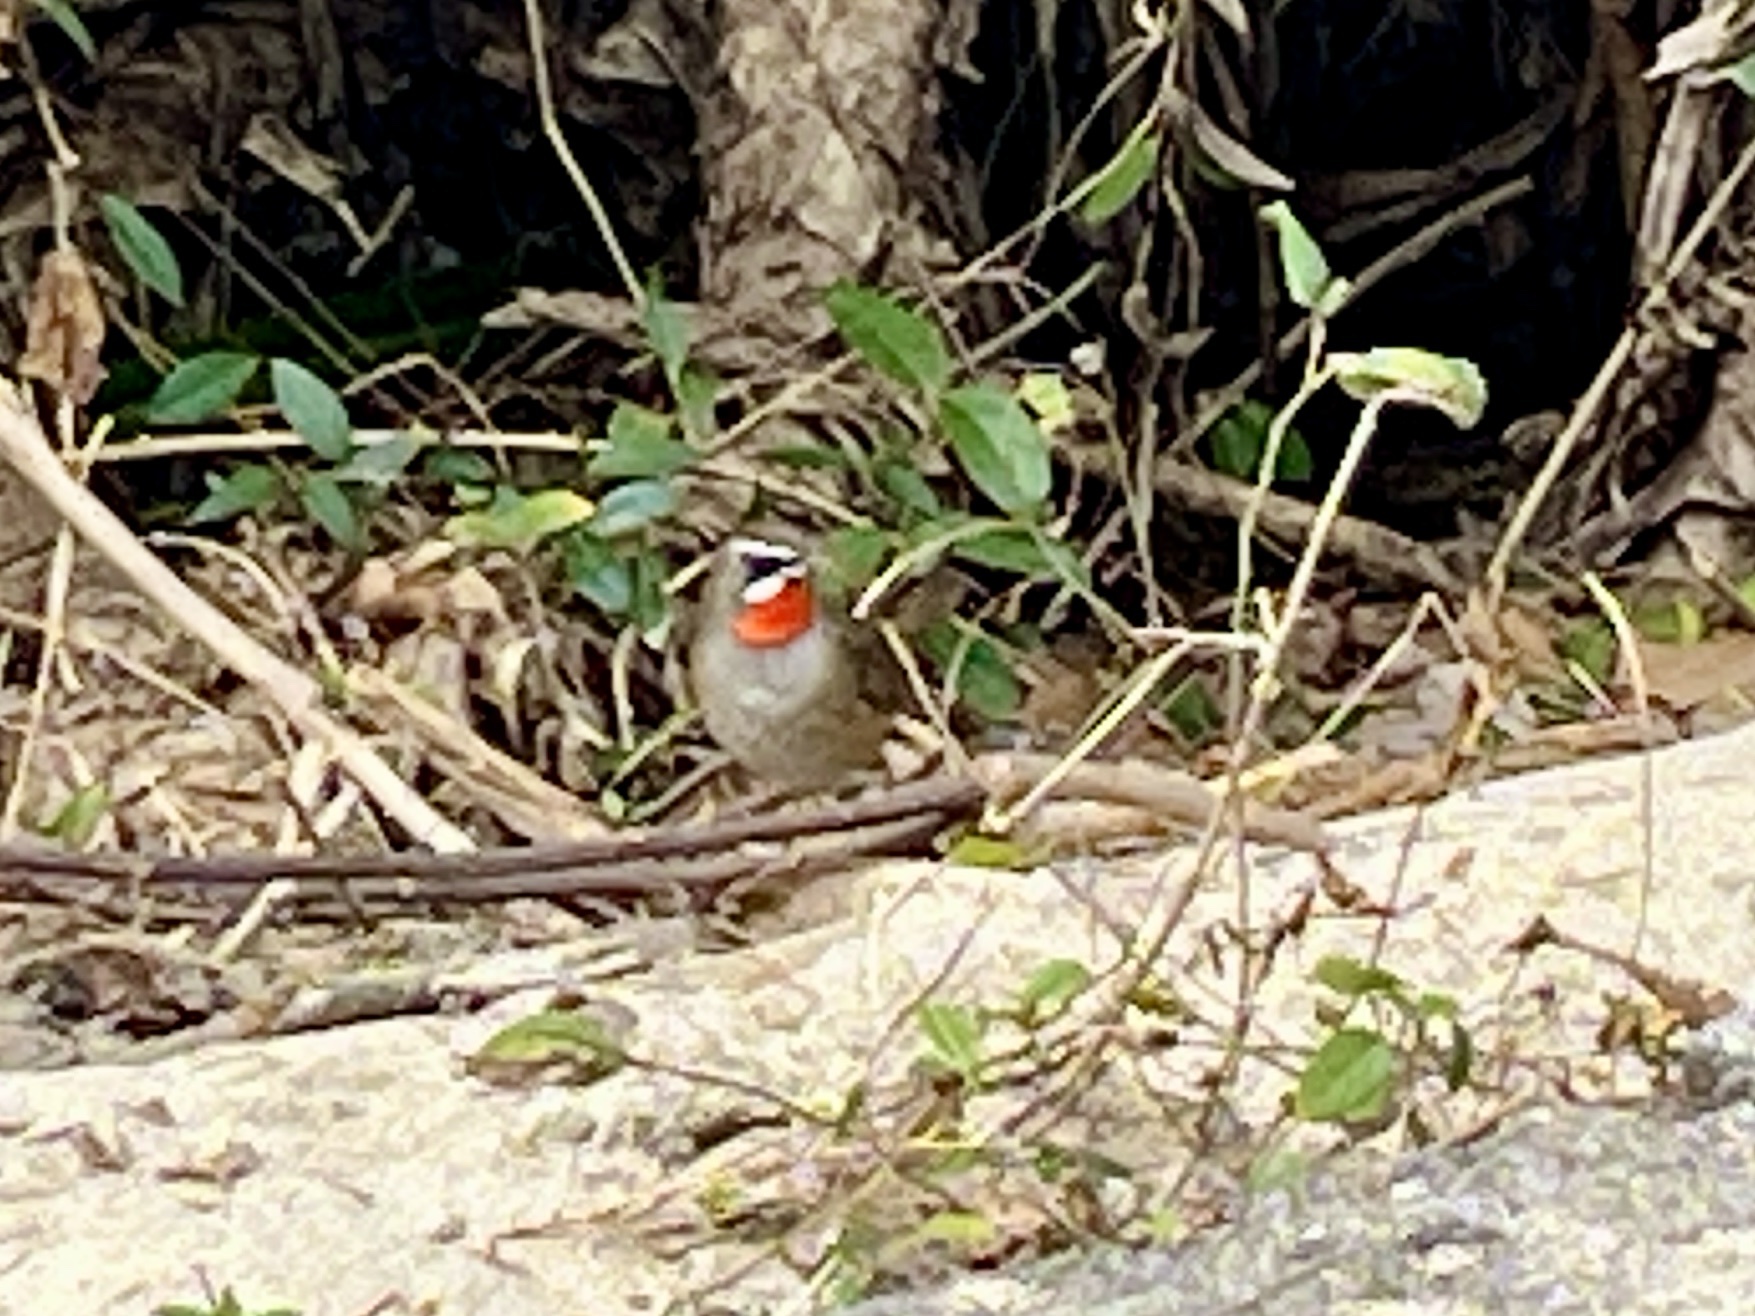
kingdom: Animalia
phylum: Chordata
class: Aves
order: Passeriformes
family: Muscicapidae
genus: Luscinia
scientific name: Luscinia calliope
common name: Siberian rubythroat
